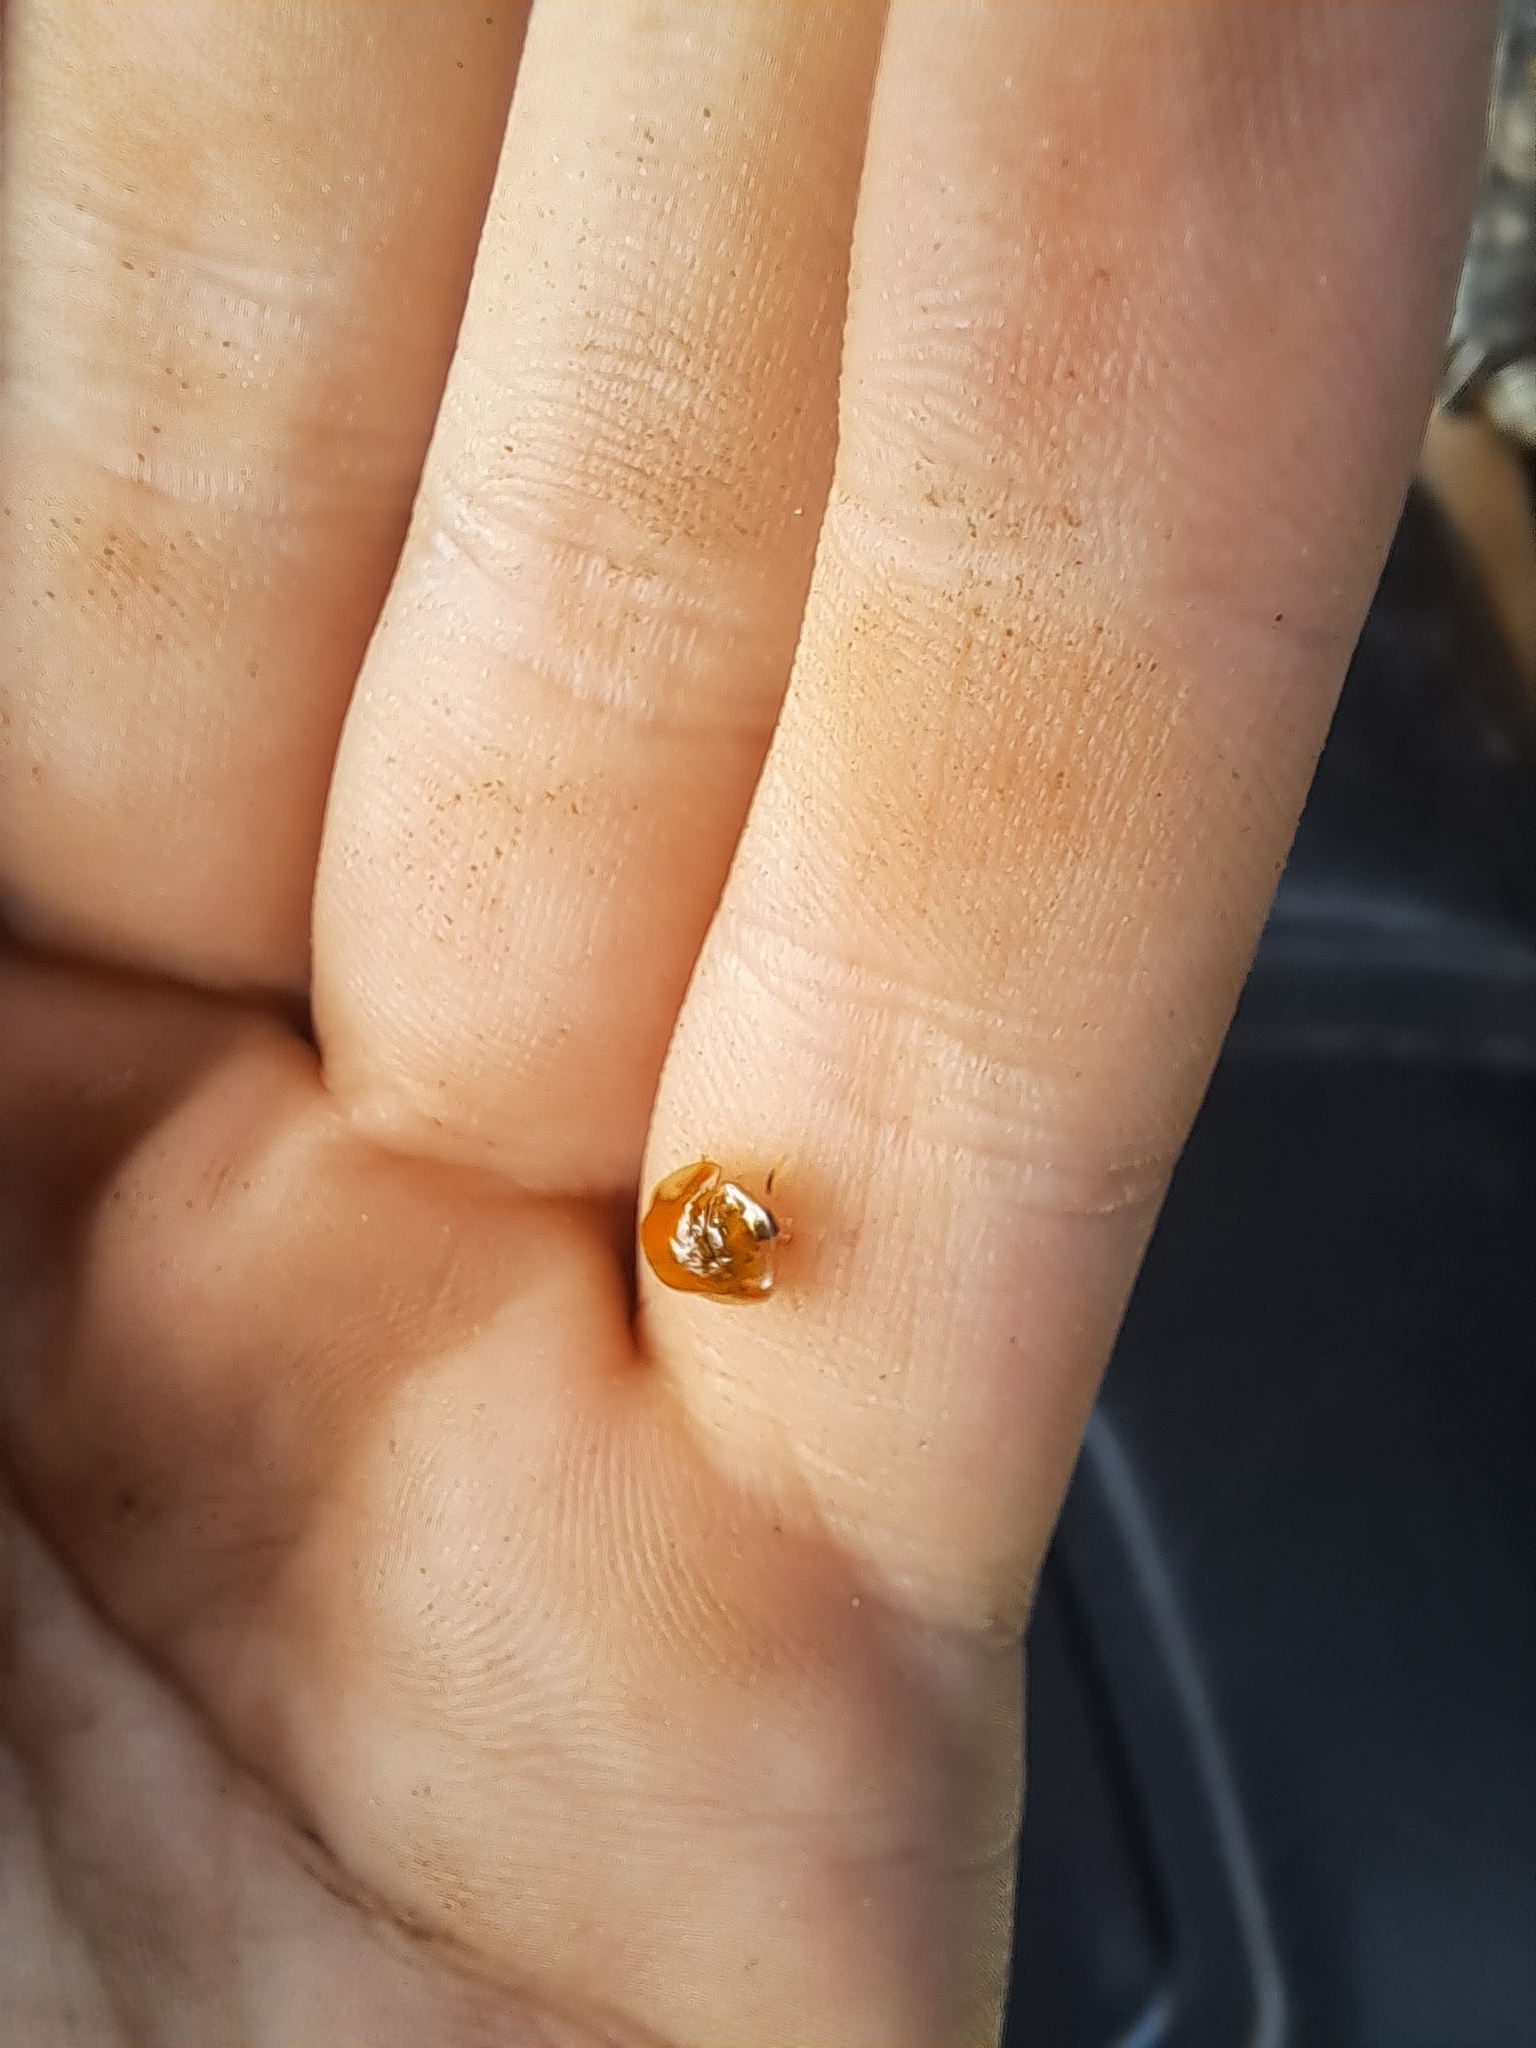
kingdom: Animalia
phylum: Arthropoda
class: Insecta
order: Coleoptera
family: Chrysomelidae
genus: Charidotella
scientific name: Charidotella purpurata
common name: Small orange tortoise beetle
